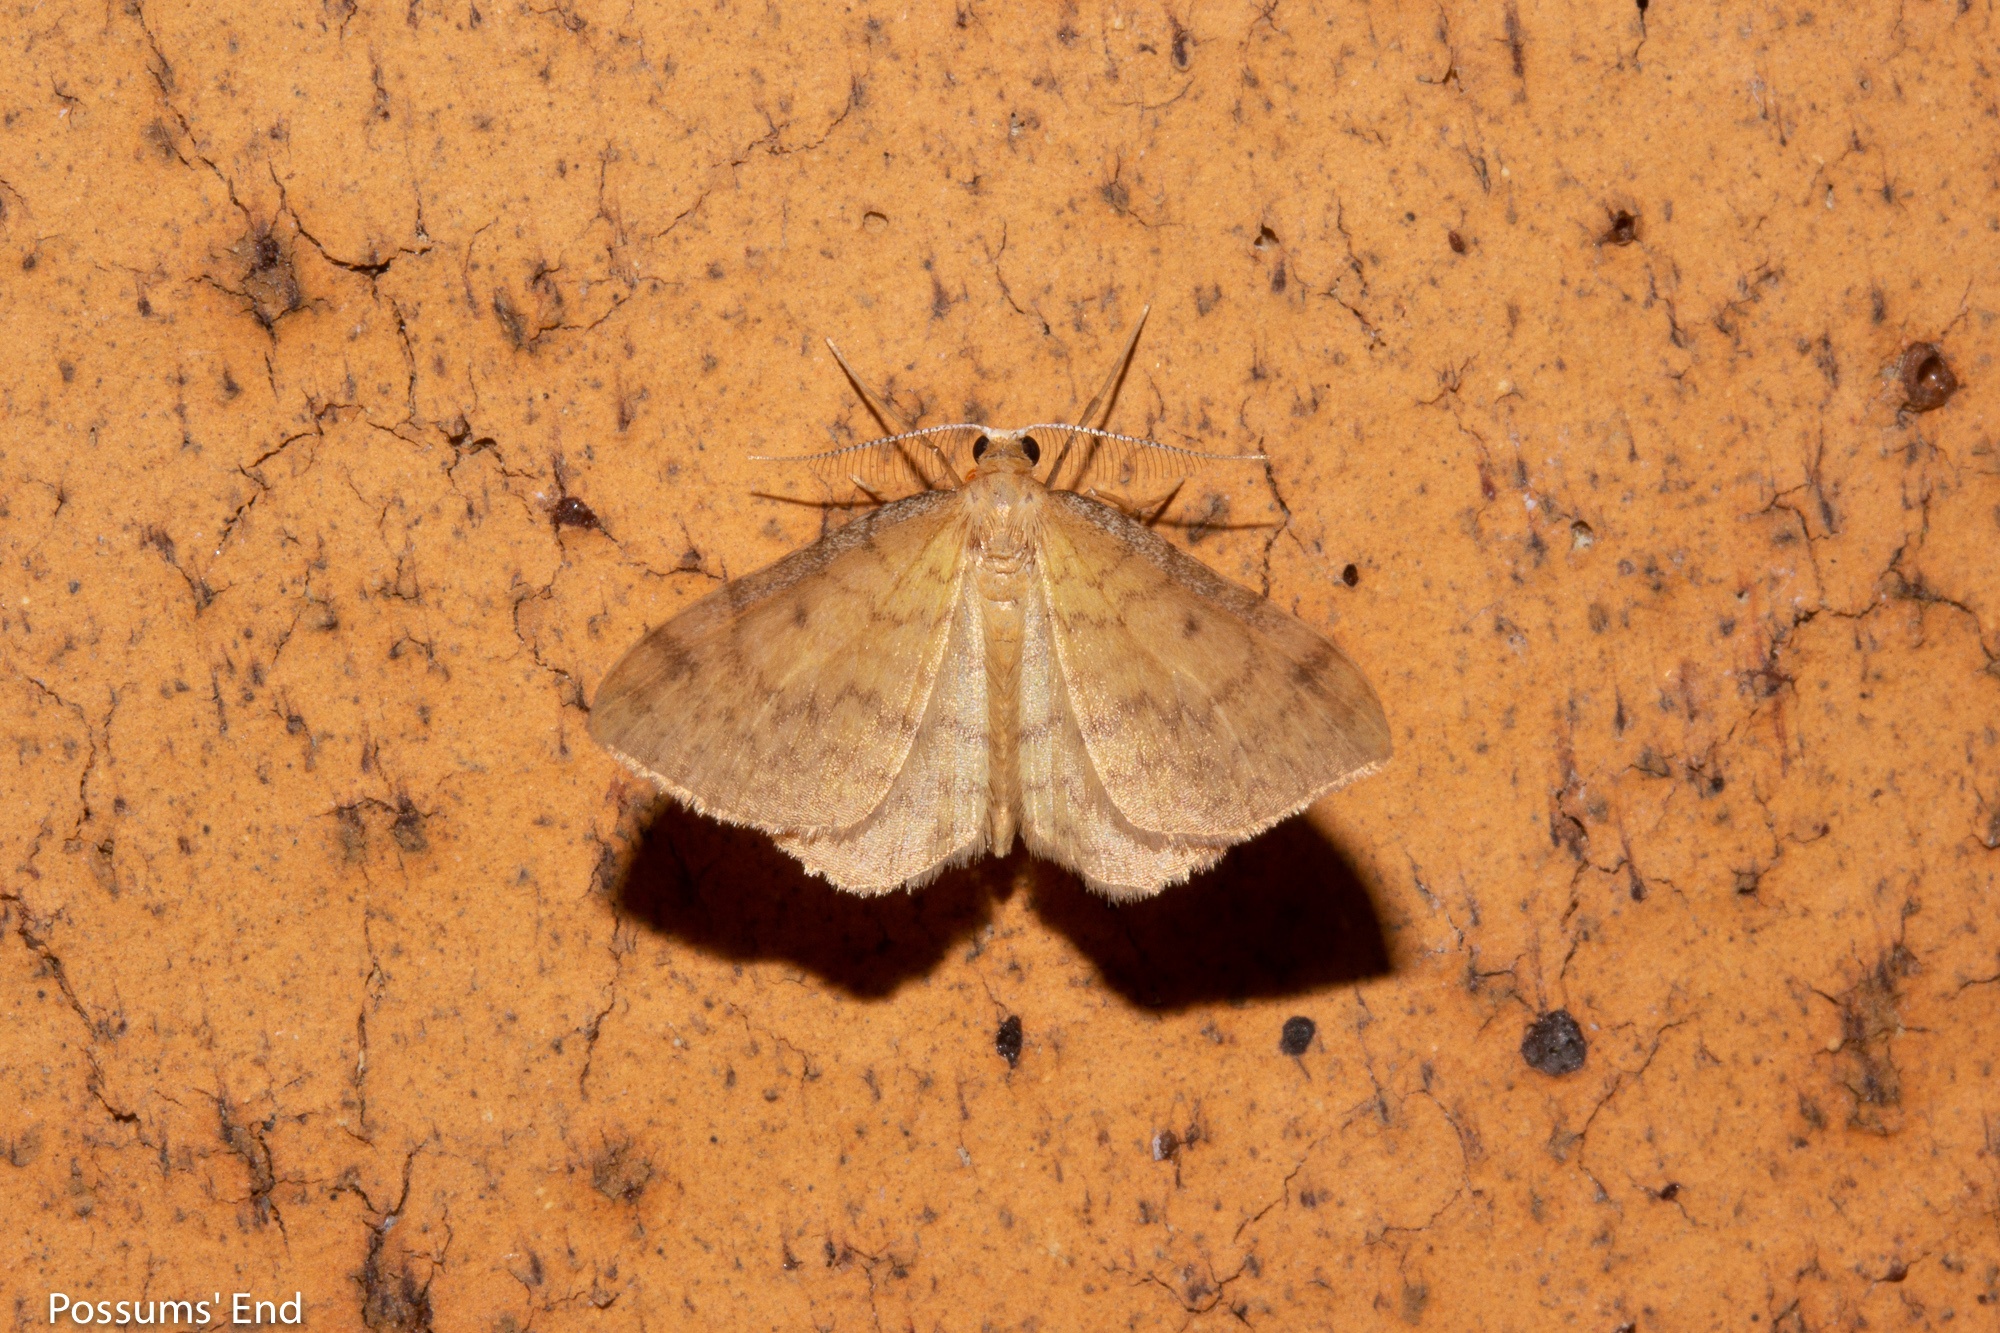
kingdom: Animalia
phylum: Arthropoda
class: Insecta
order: Lepidoptera
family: Geometridae
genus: Epiphryne
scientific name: Epiphryne undosata
